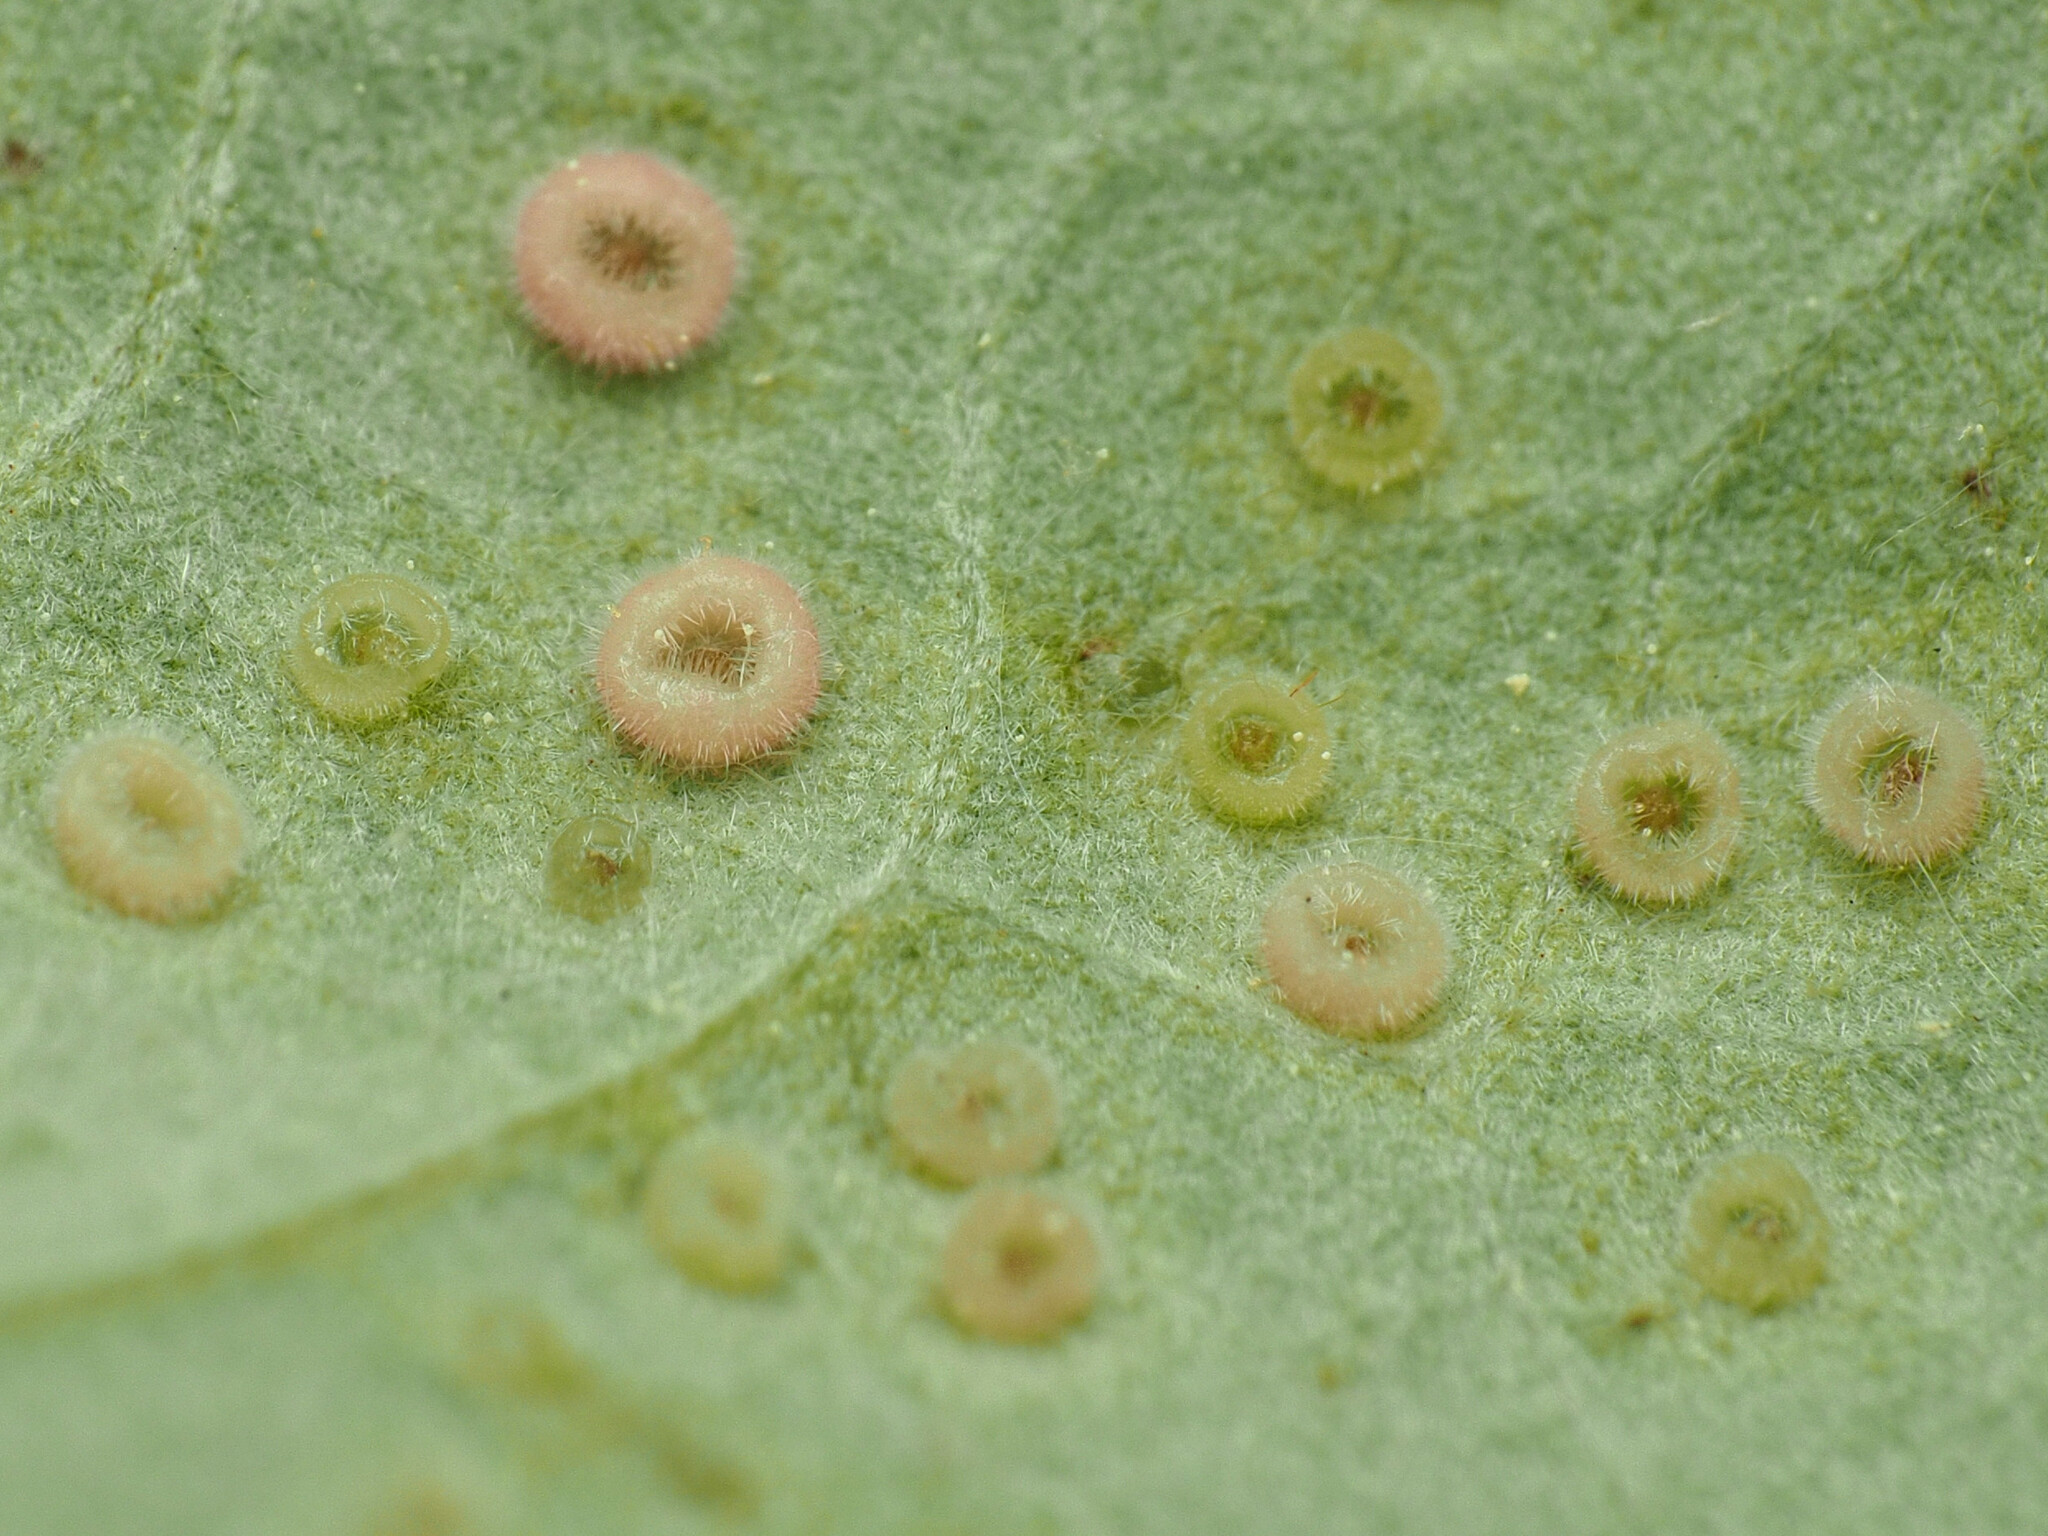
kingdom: Animalia
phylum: Arthropoda
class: Insecta
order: Hymenoptera
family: Cynipidae
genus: Neuroterus
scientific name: Neuroterus
